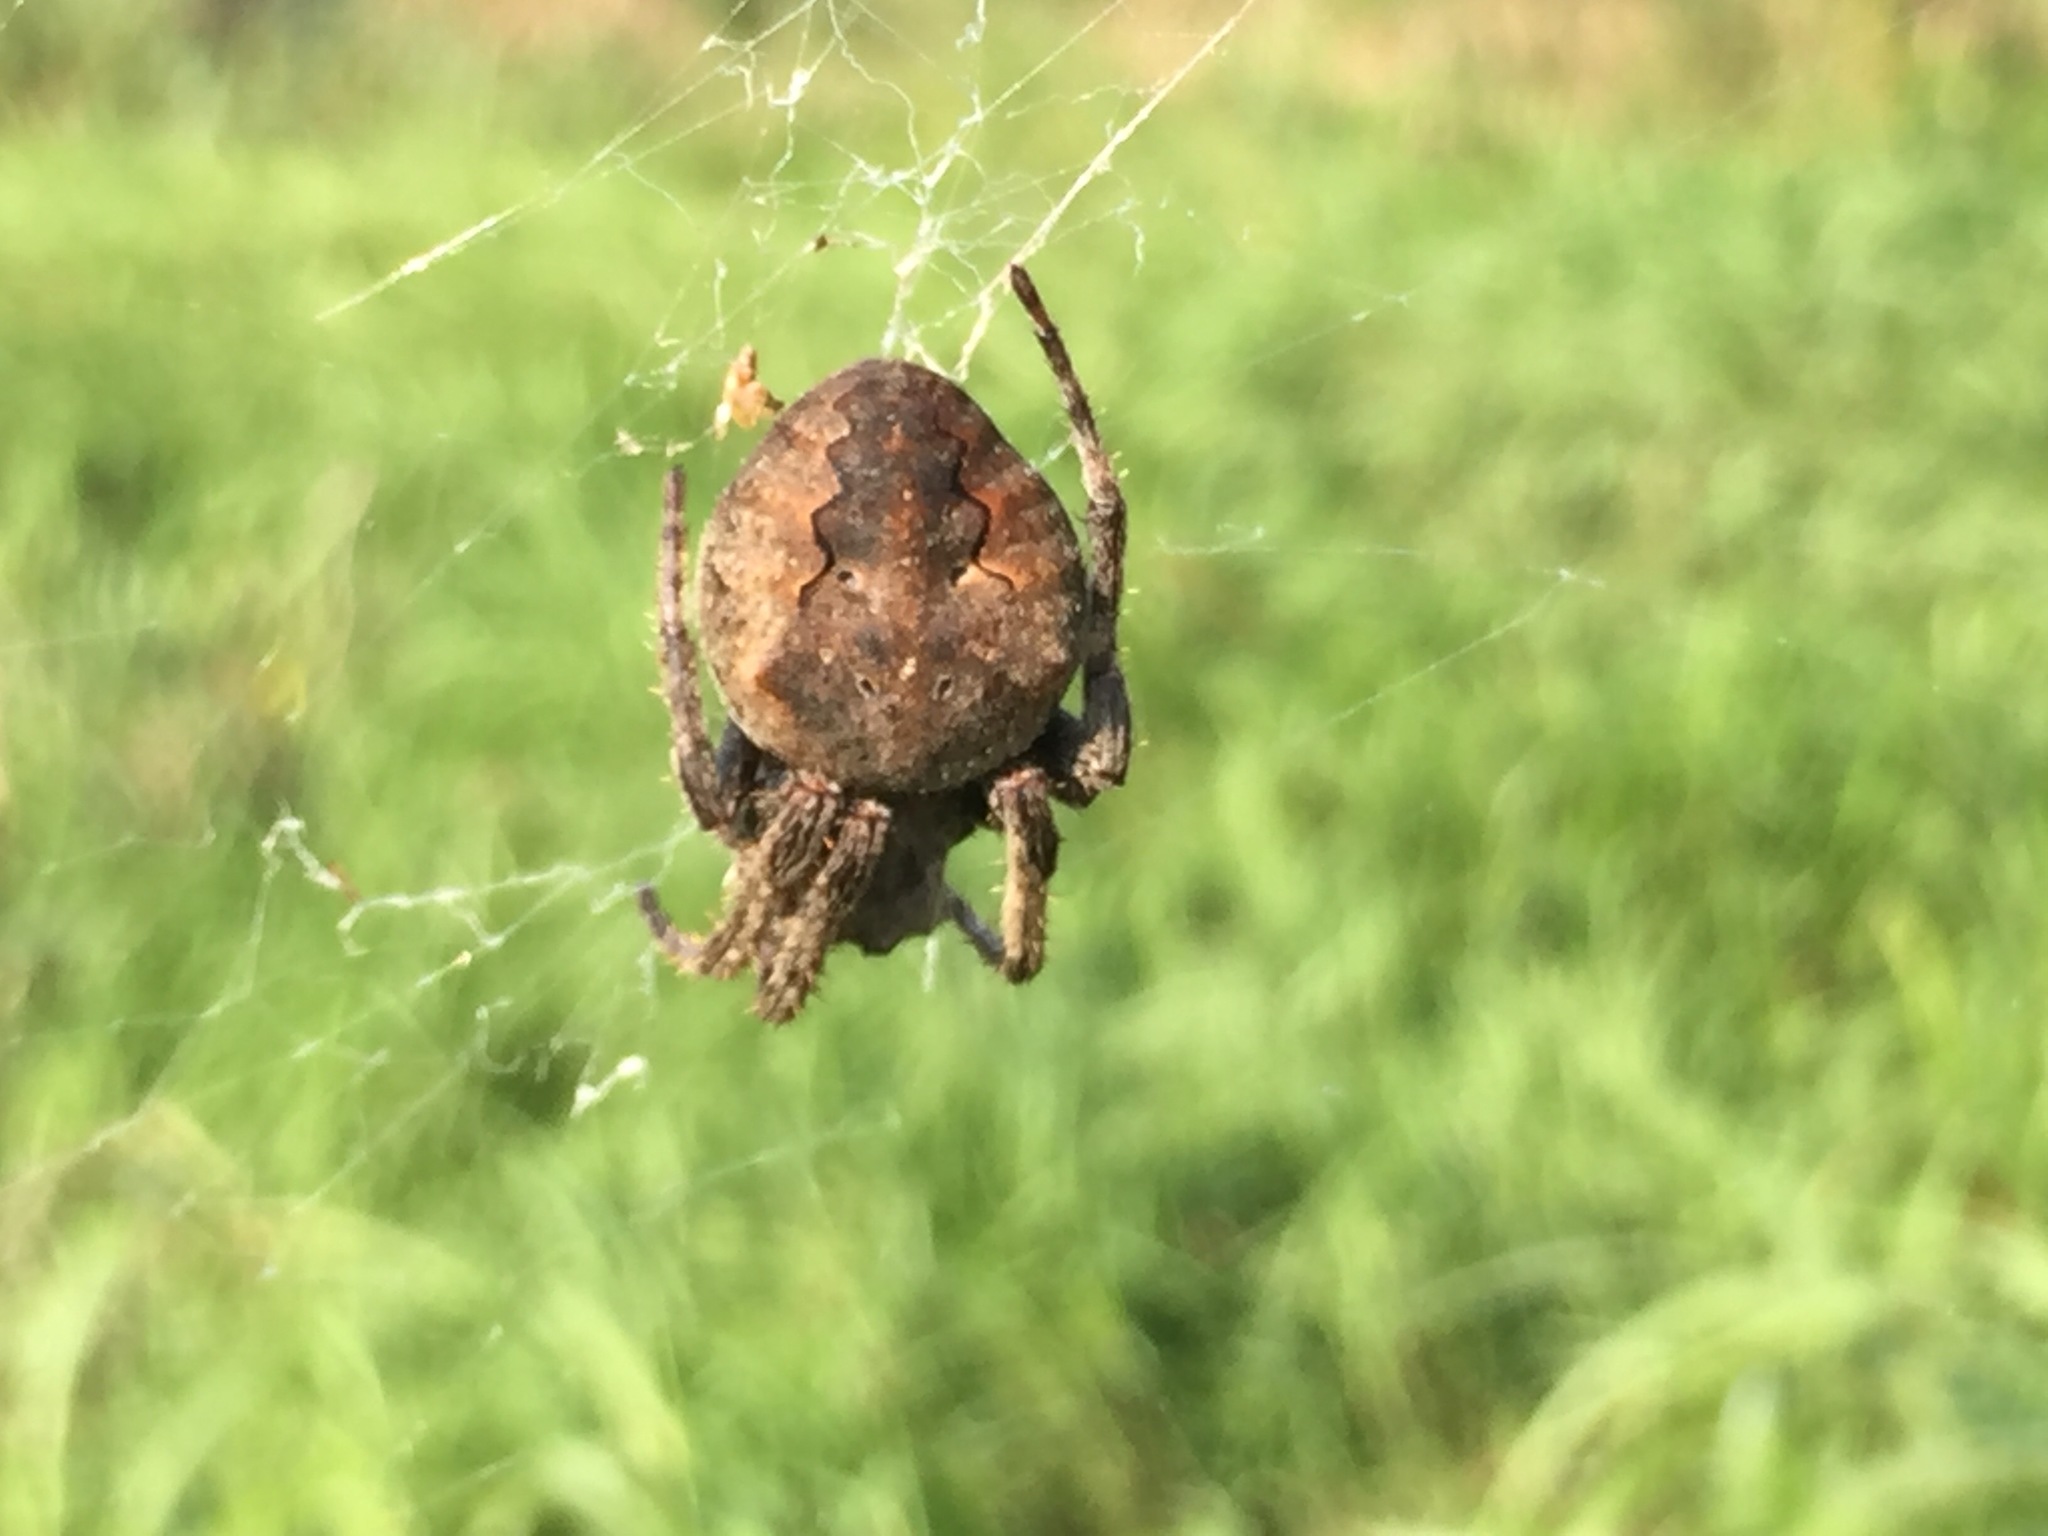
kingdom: Animalia
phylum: Arthropoda
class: Arachnida
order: Araneae
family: Araneidae
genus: Araneus
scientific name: Araneus ventricosus
